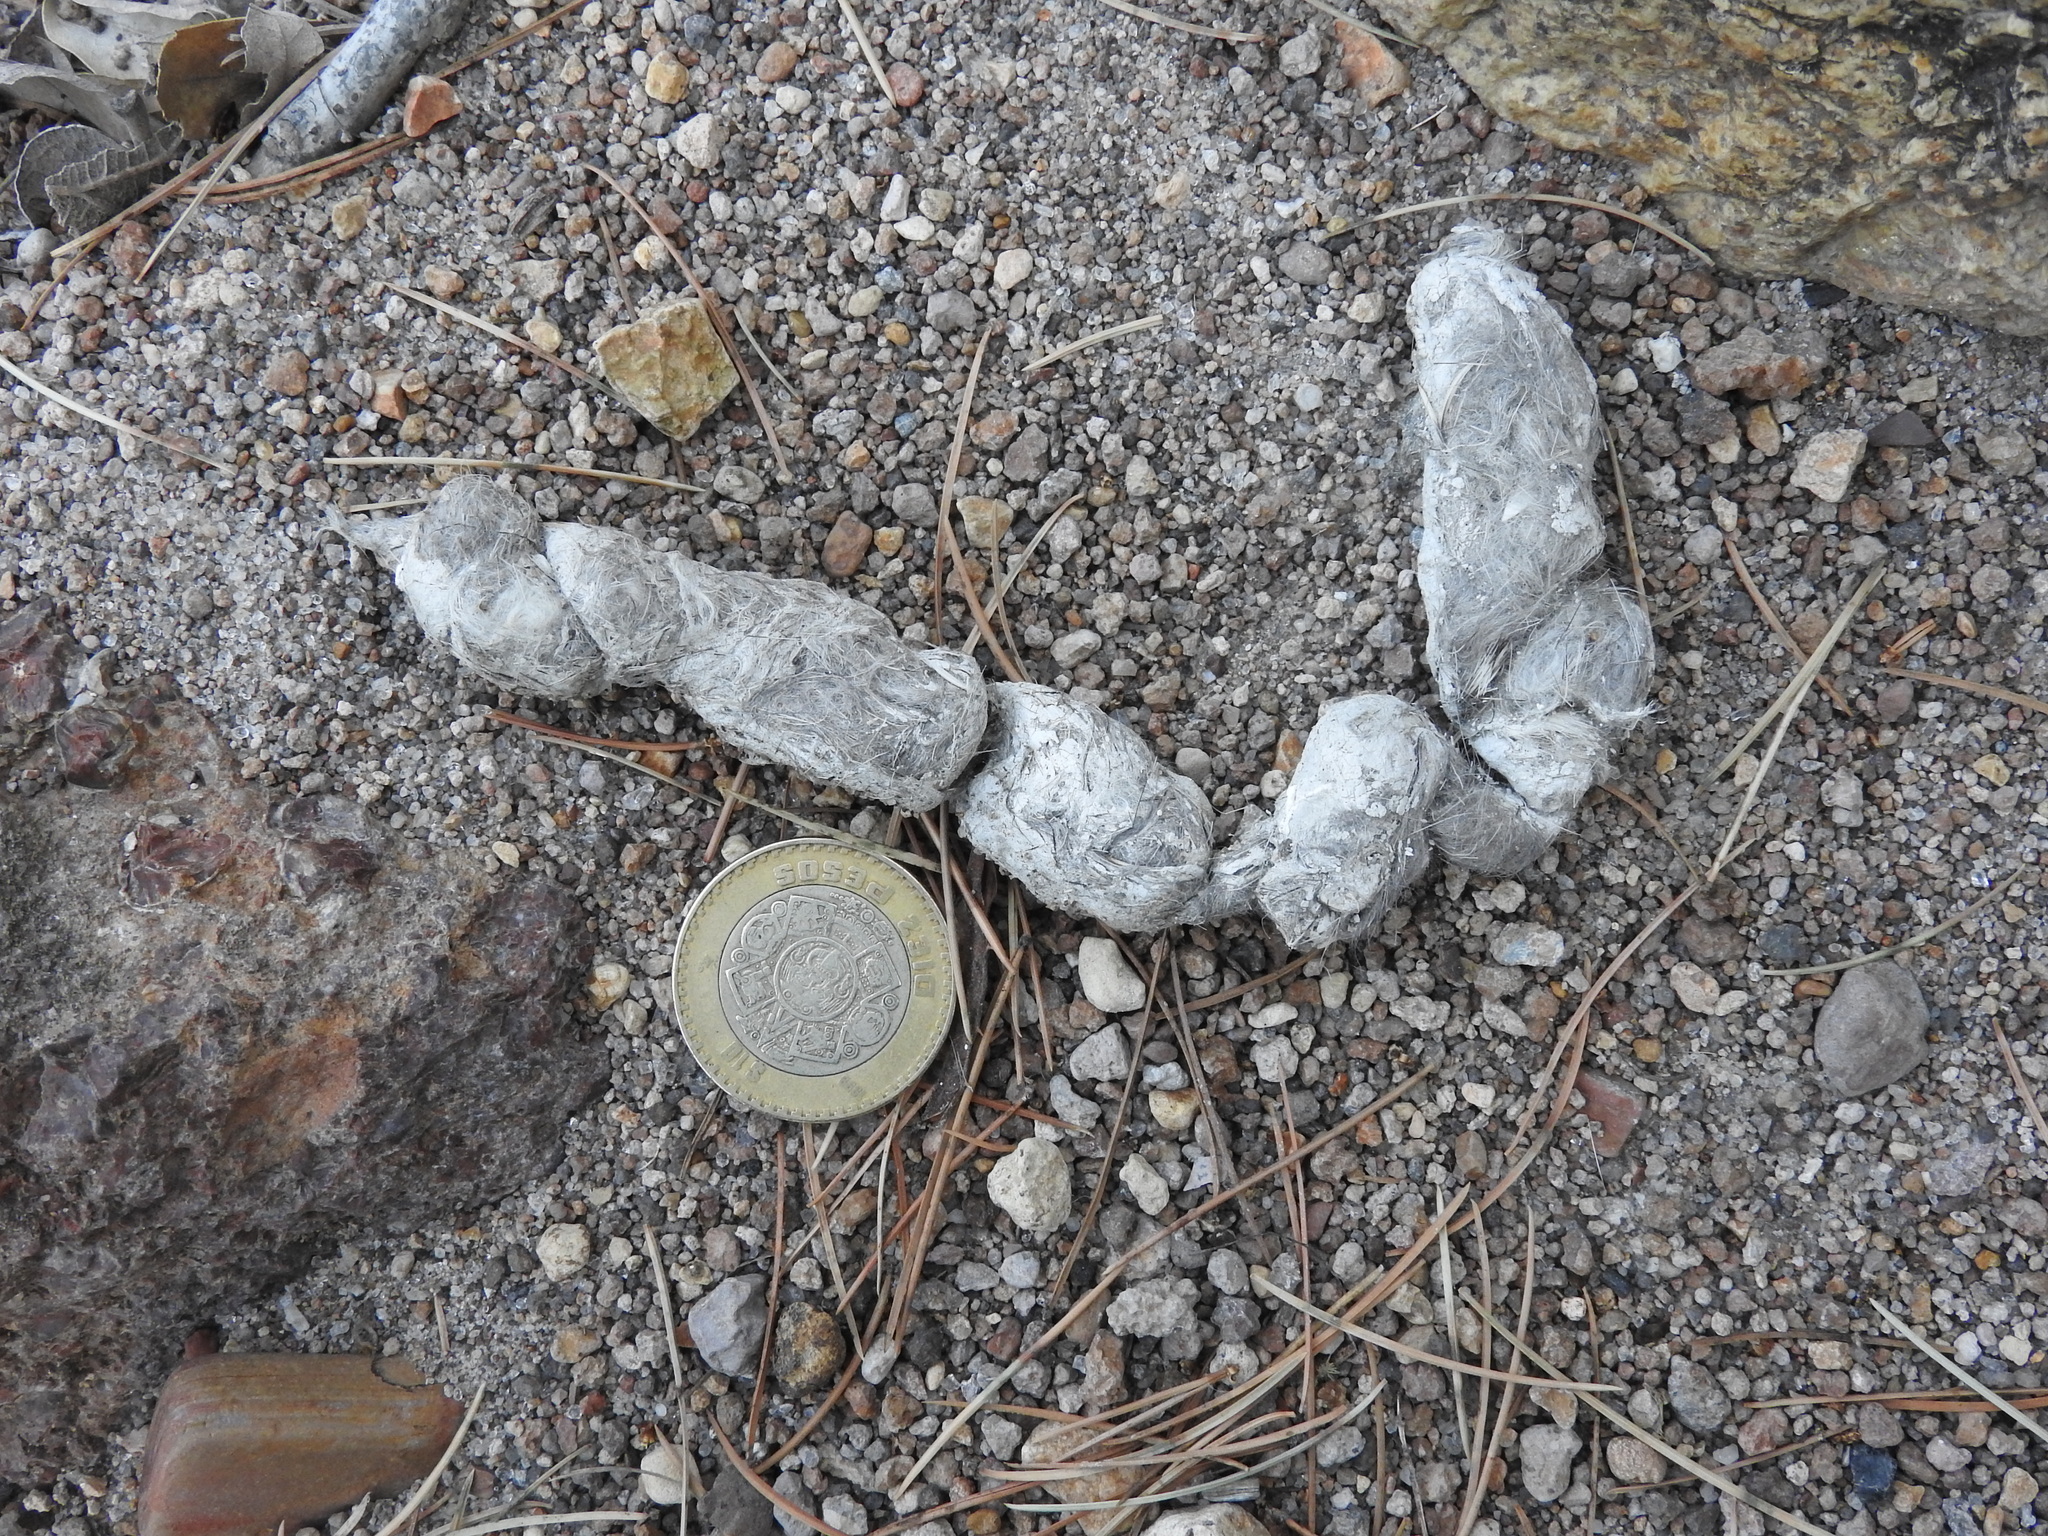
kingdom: Animalia
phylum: Chordata
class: Mammalia
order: Carnivora
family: Felidae
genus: Lynx
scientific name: Lynx rufus
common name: Bobcat
